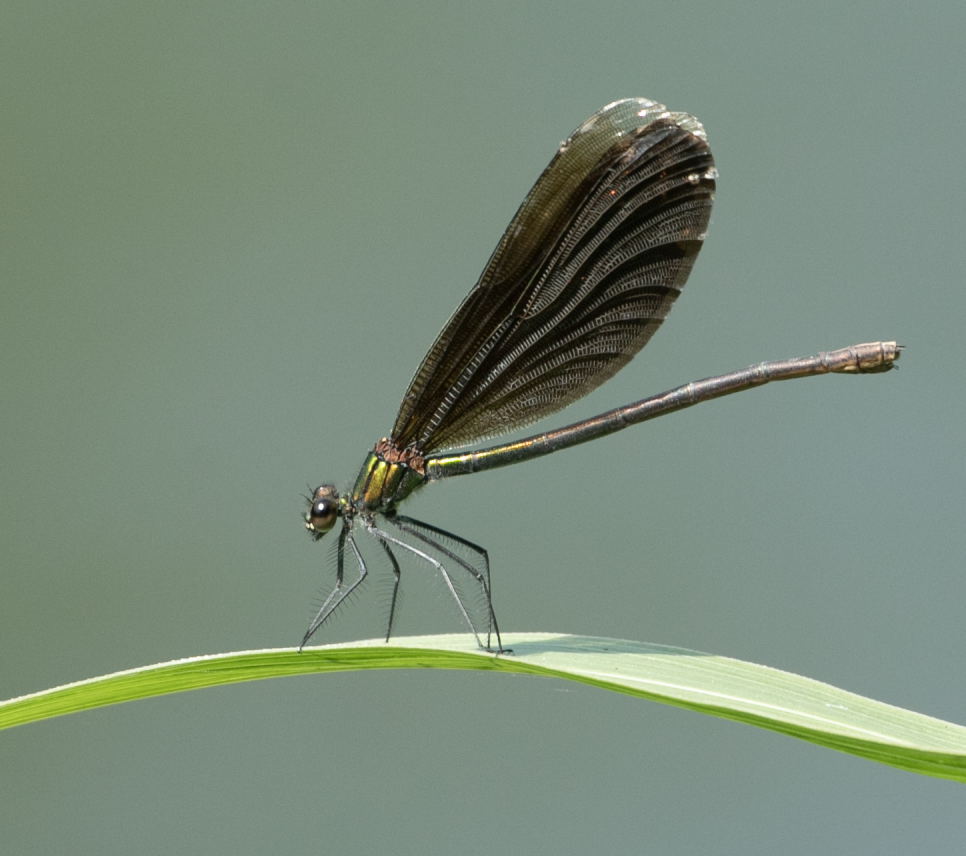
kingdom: Animalia
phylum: Arthropoda
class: Insecta
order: Odonata
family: Calopterygidae
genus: Calopteryx
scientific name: Calopteryx virgo
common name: Beautiful demoiselle
